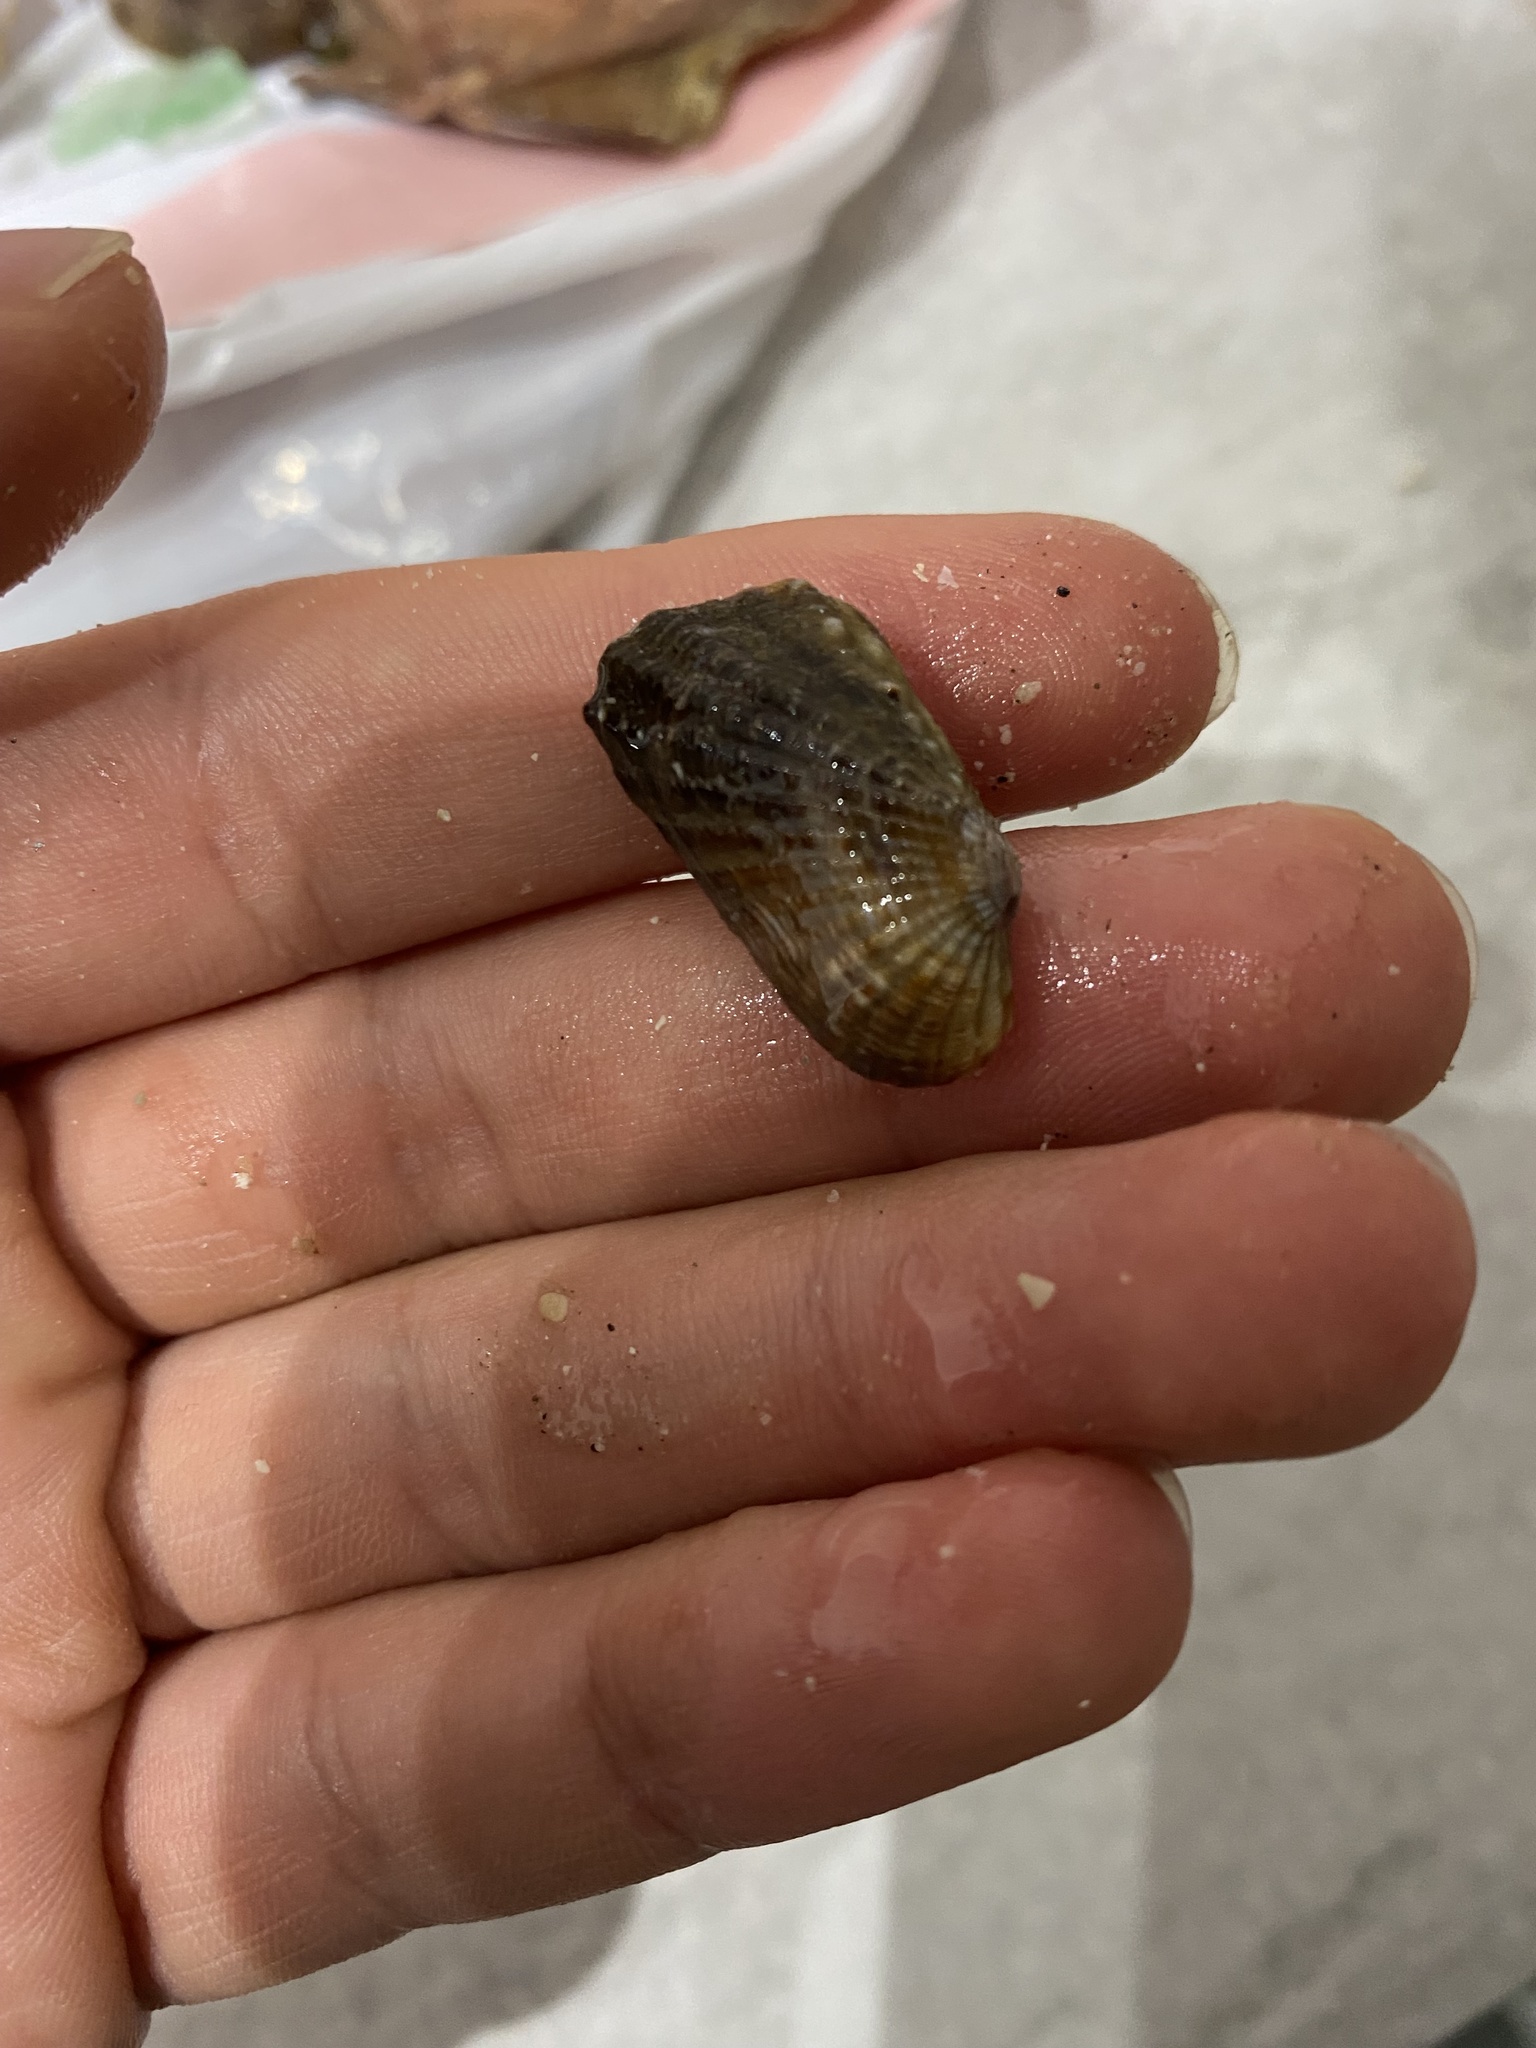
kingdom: Animalia
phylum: Mollusca
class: Bivalvia
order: Carditida
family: Carditidae
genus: Carditamera
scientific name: Carditamera affinis
